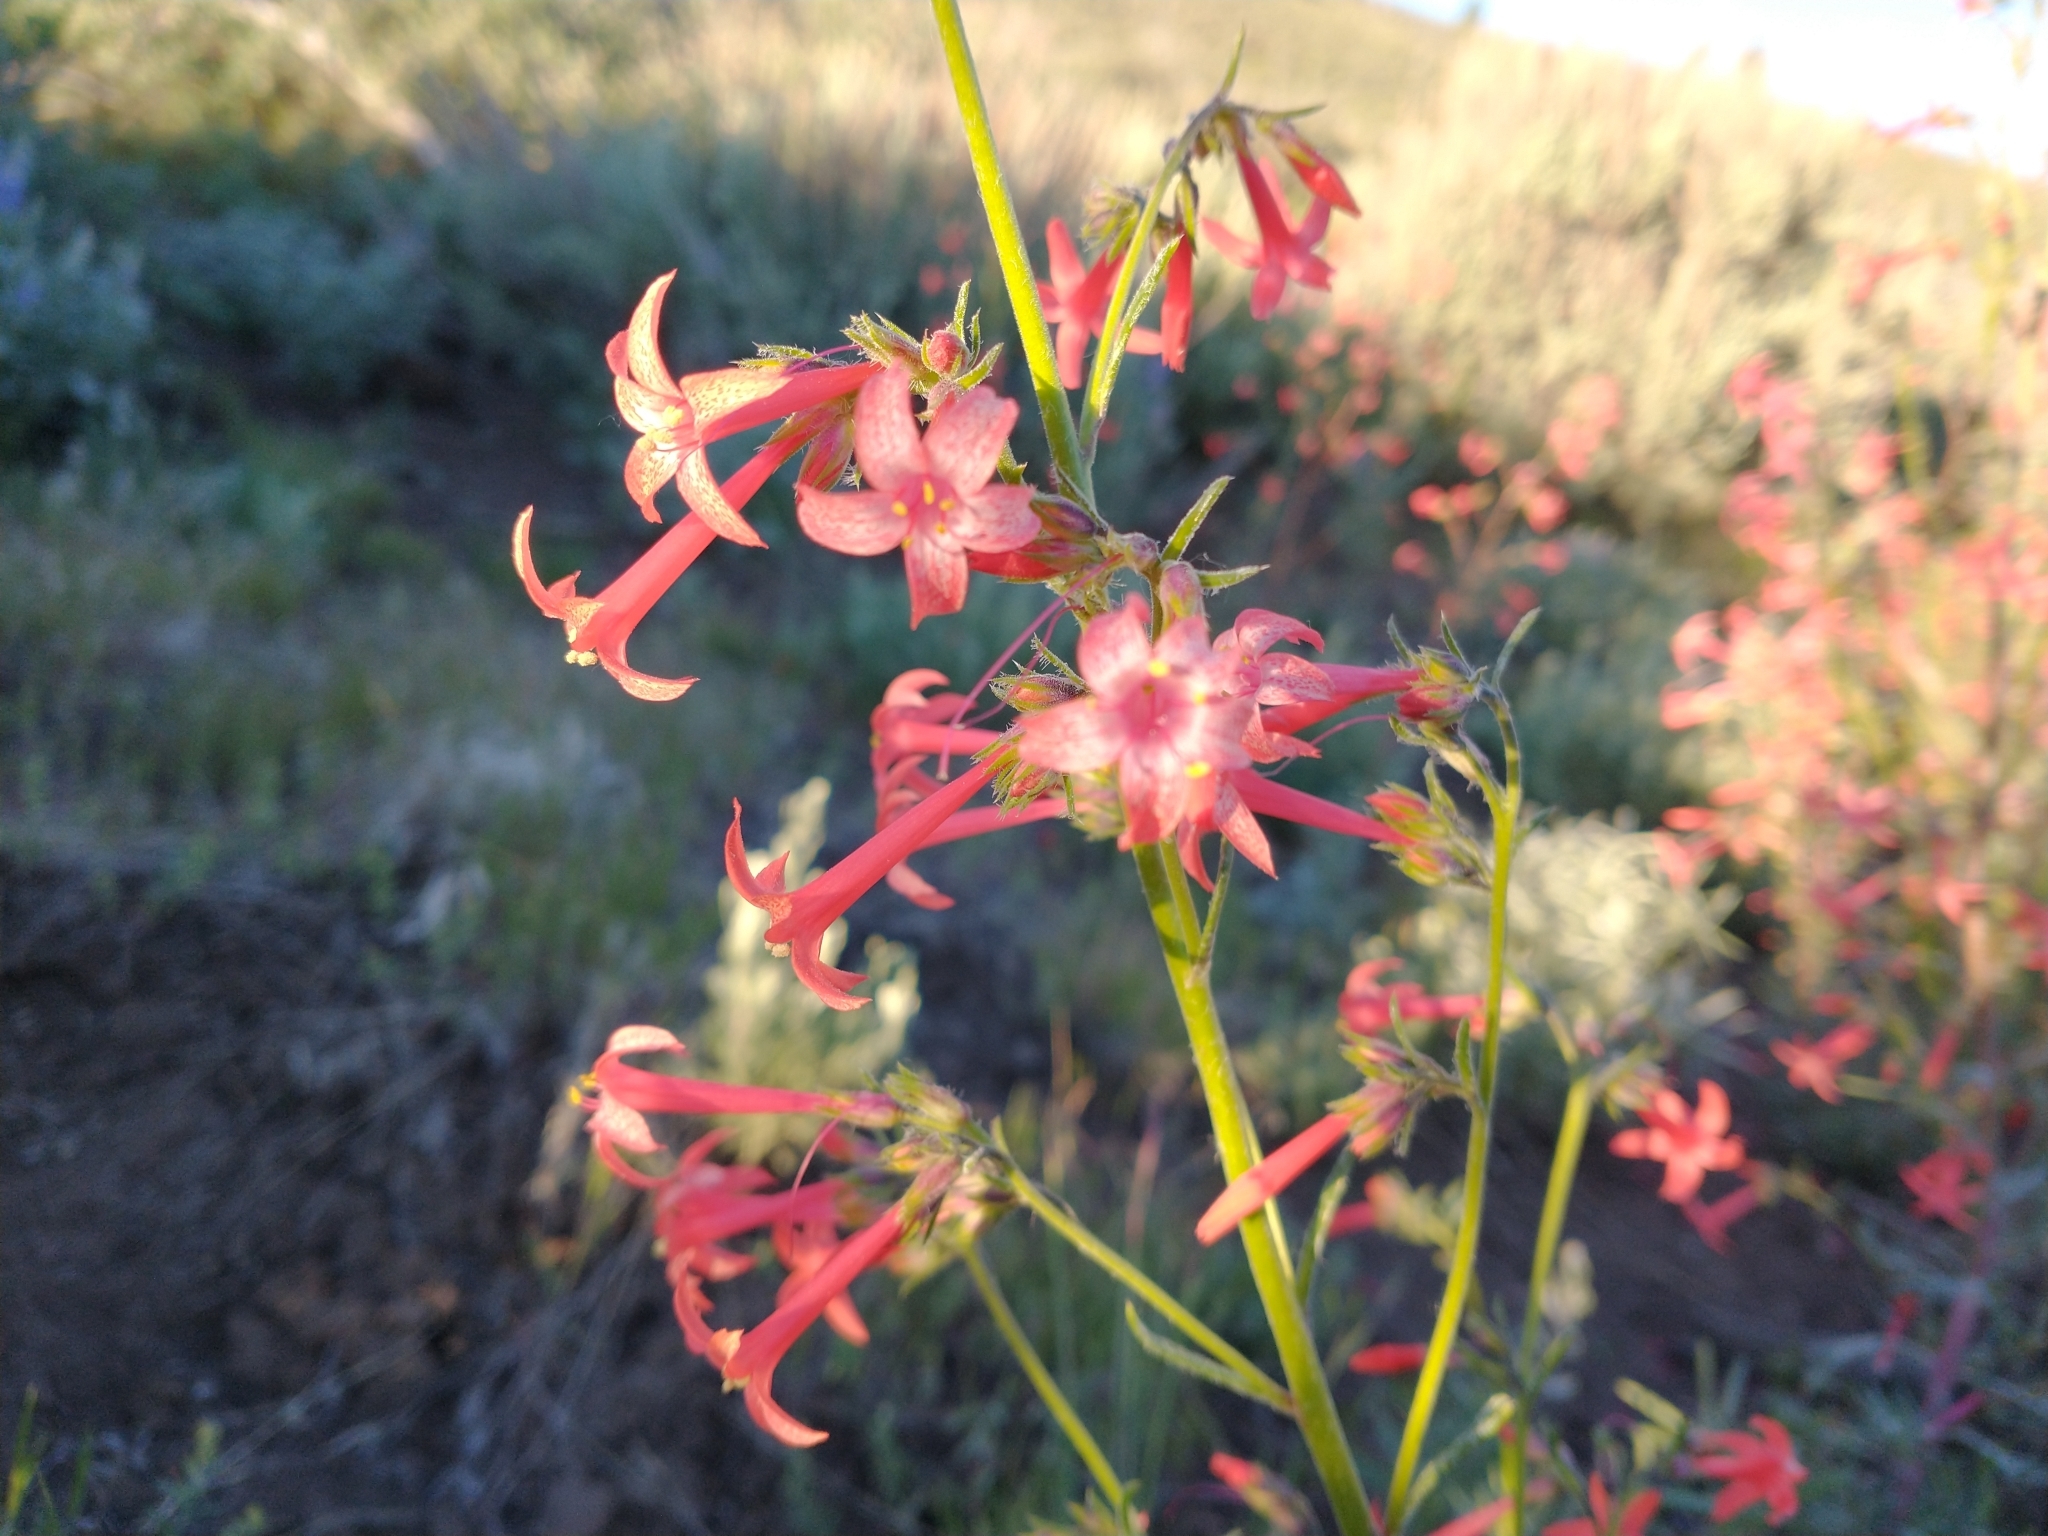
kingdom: Plantae
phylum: Tracheophyta
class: Magnoliopsida
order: Ericales
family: Polemoniaceae
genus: Ipomopsis
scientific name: Ipomopsis aggregata
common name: Scarlet gilia
